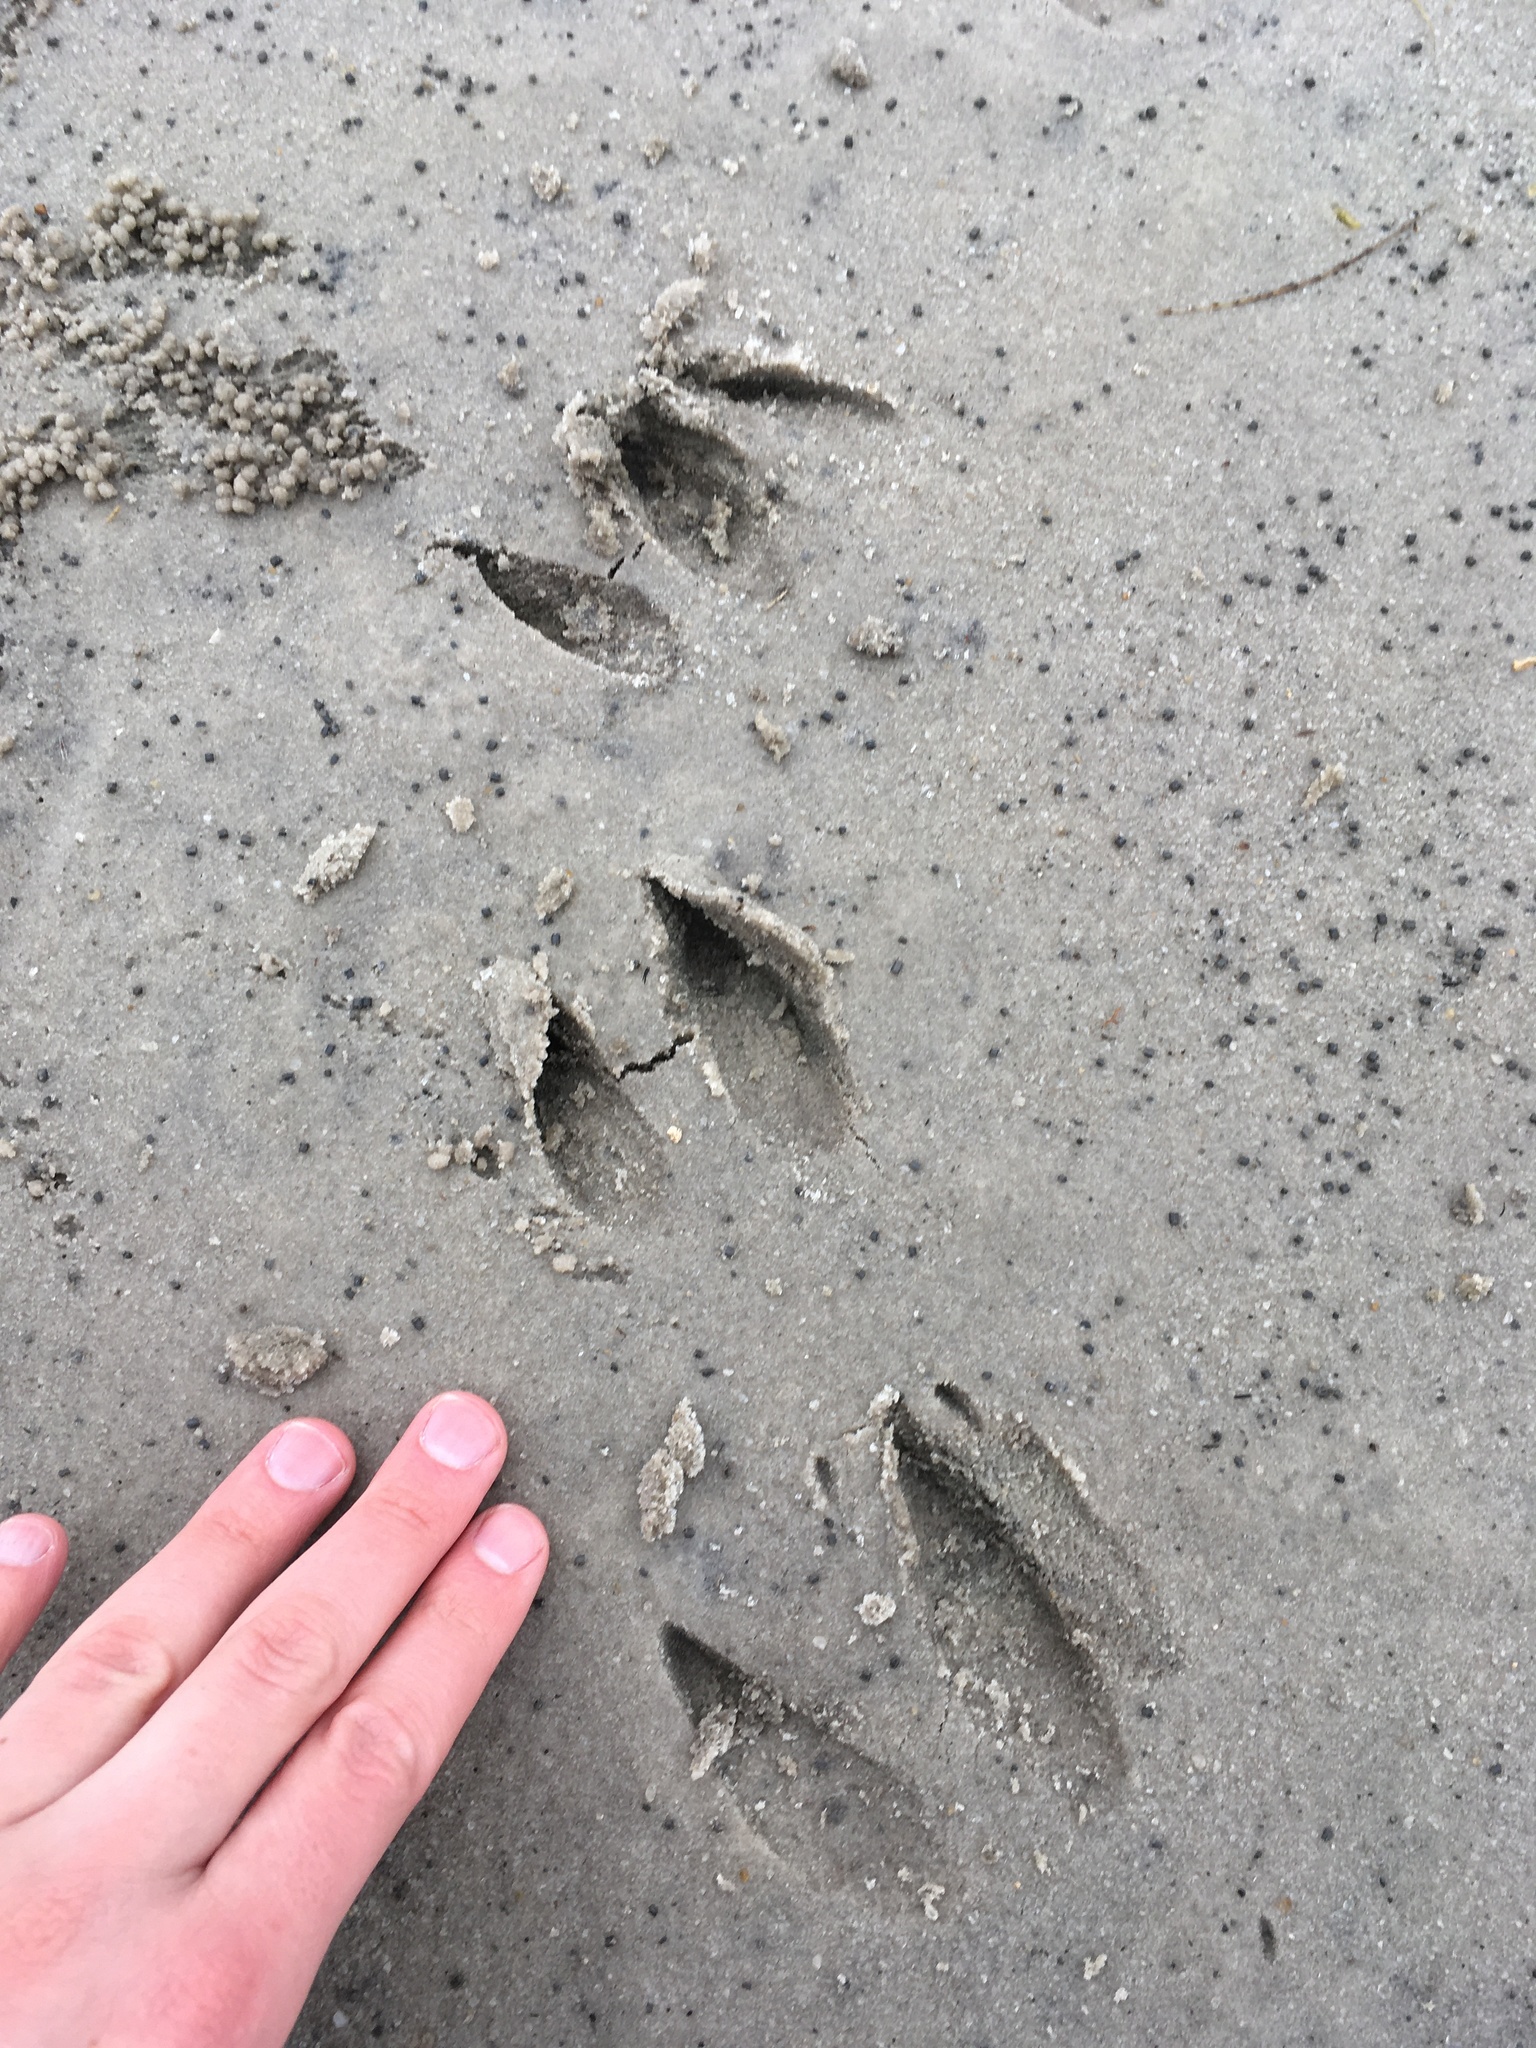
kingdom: Animalia
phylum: Chordata
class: Mammalia
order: Artiodactyla
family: Cervidae
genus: Odocoileus
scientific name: Odocoileus virginianus
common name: White-tailed deer
